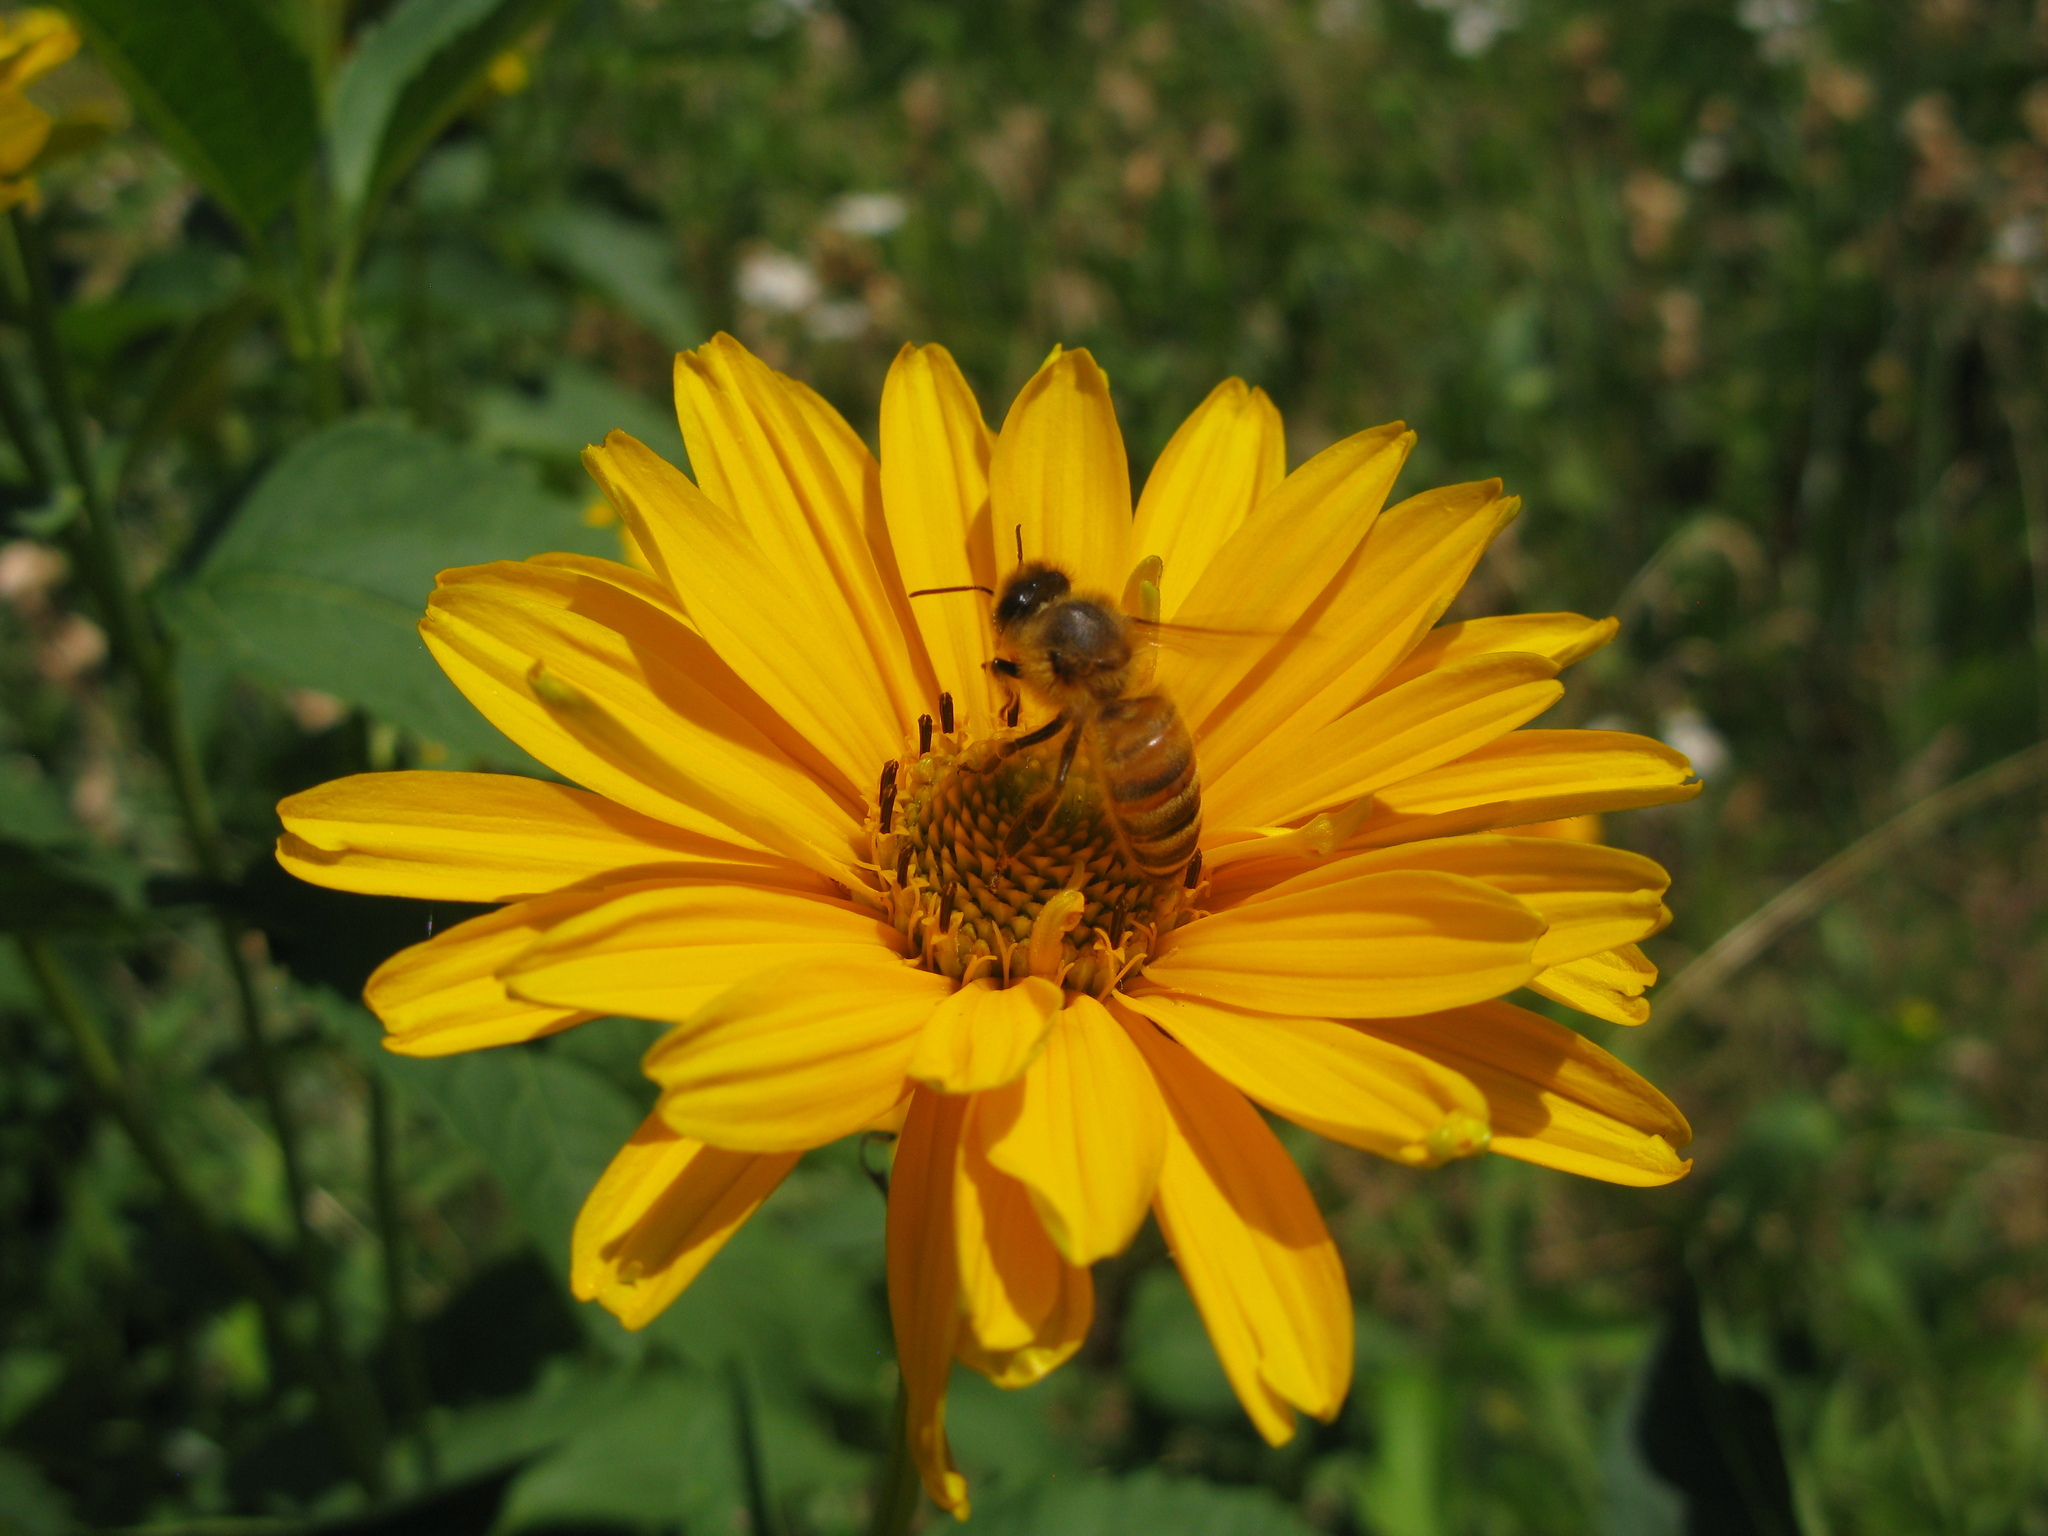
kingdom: Animalia
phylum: Arthropoda
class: Insecta
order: Hymenoptera
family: Apidae
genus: Apis
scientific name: Apis mellifera
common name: Honey bee
